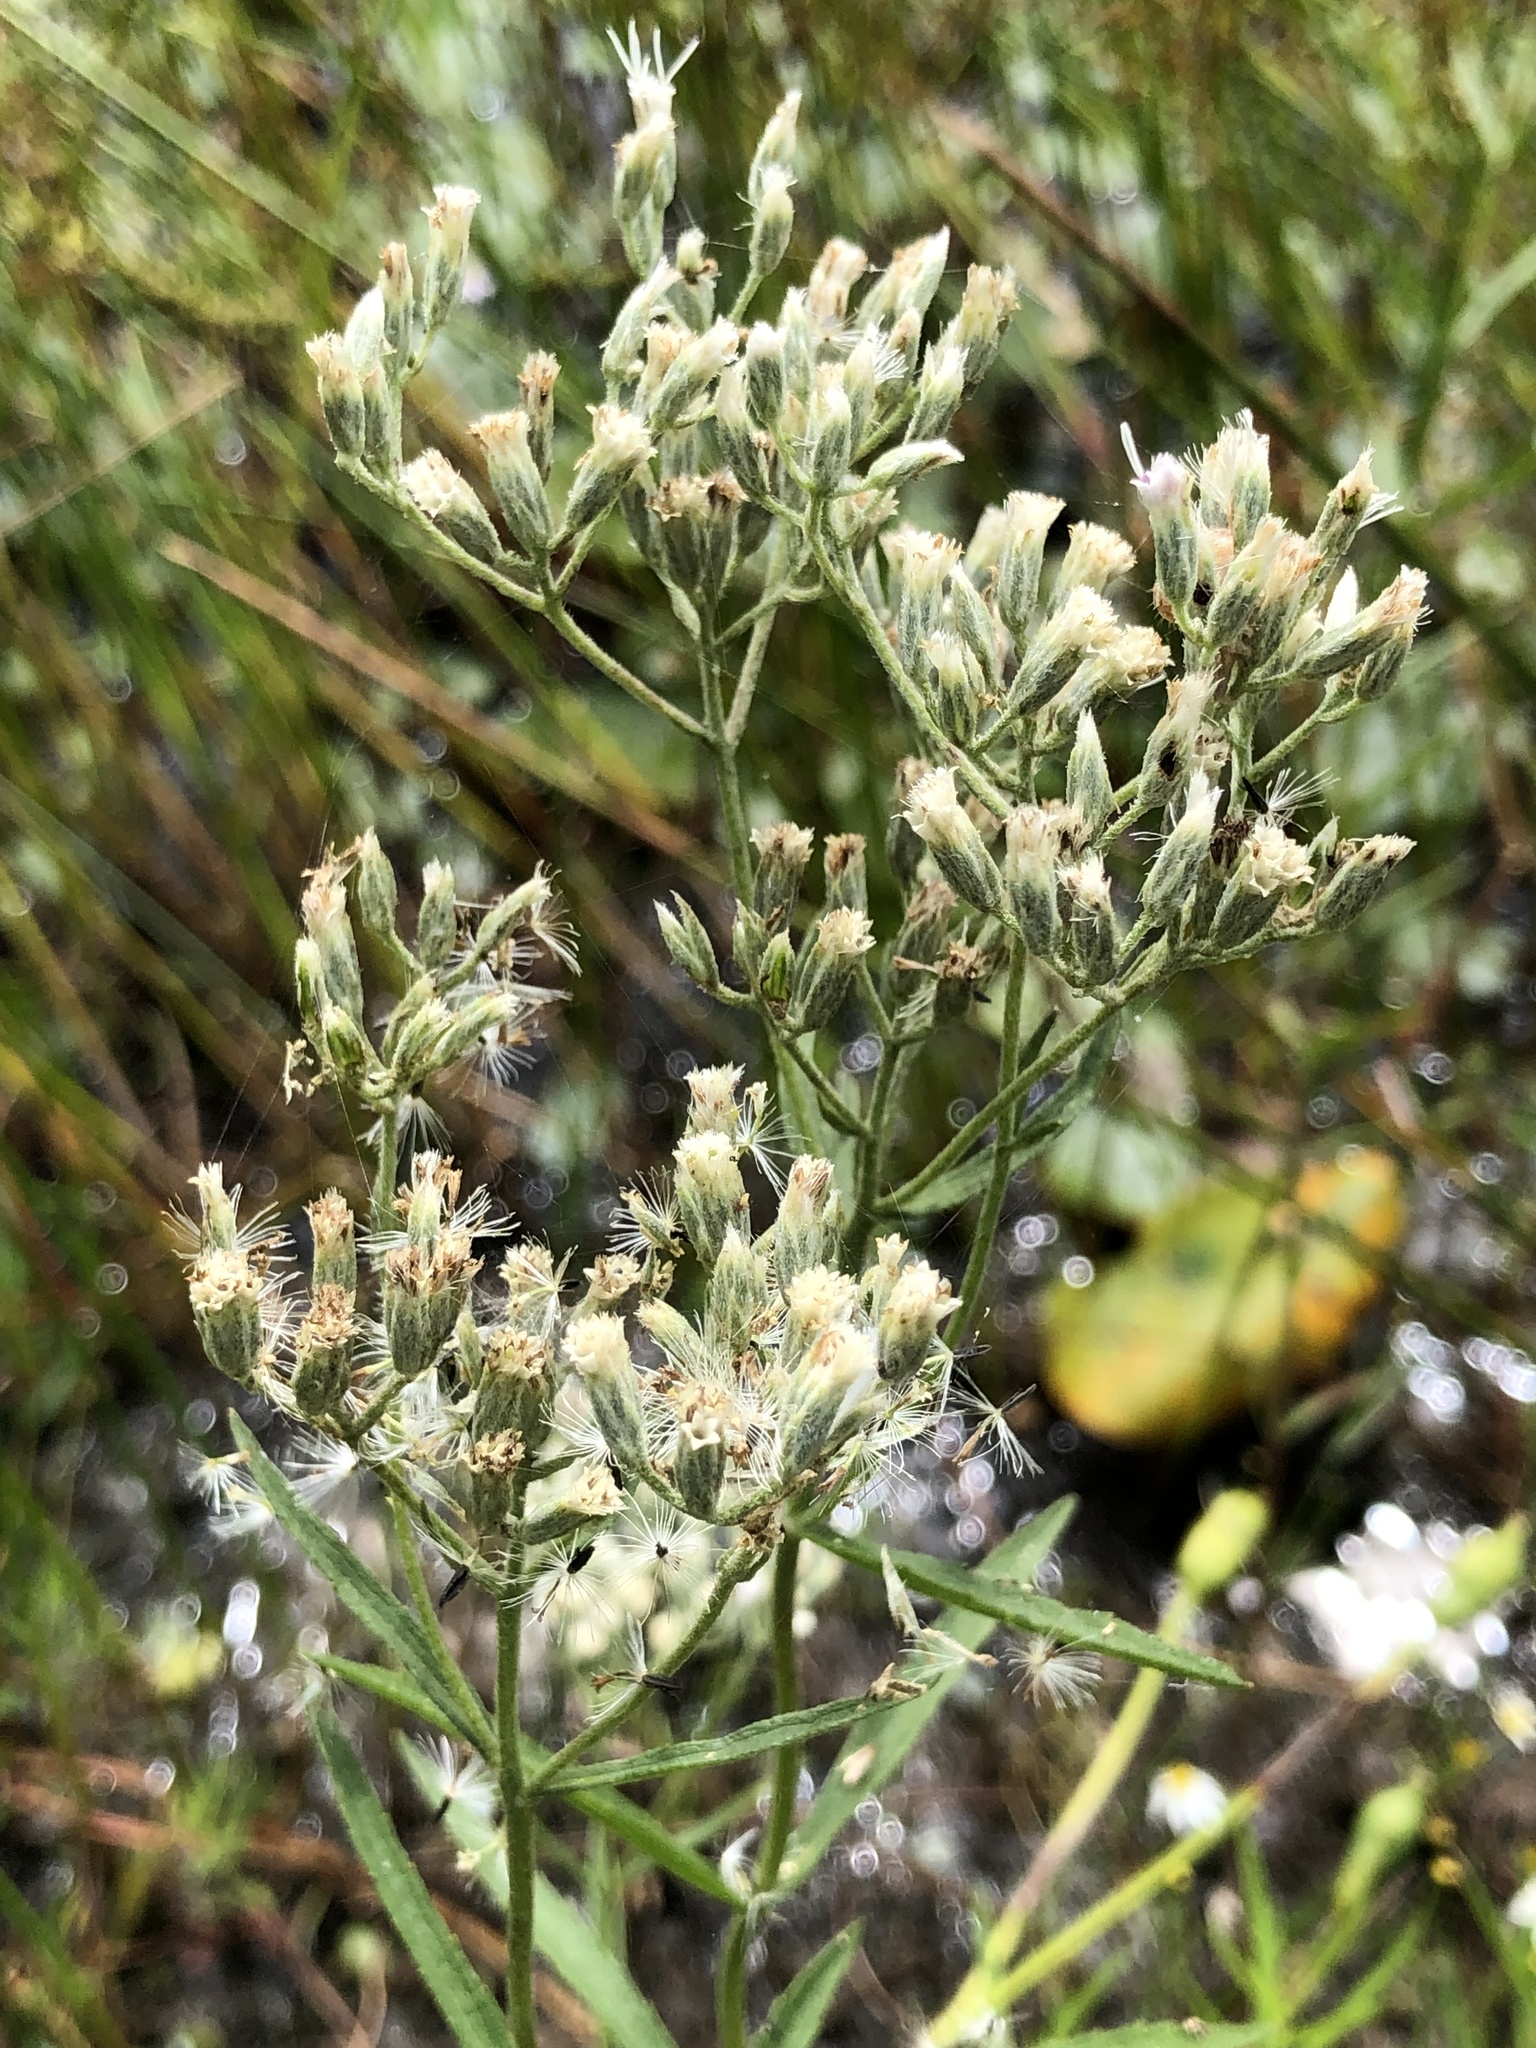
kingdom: Plantae
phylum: Tracheophyta
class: Magnoliopsida
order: Asterales
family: Asteraceae
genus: Eupatorium
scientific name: Eupatorium novaeangliae
